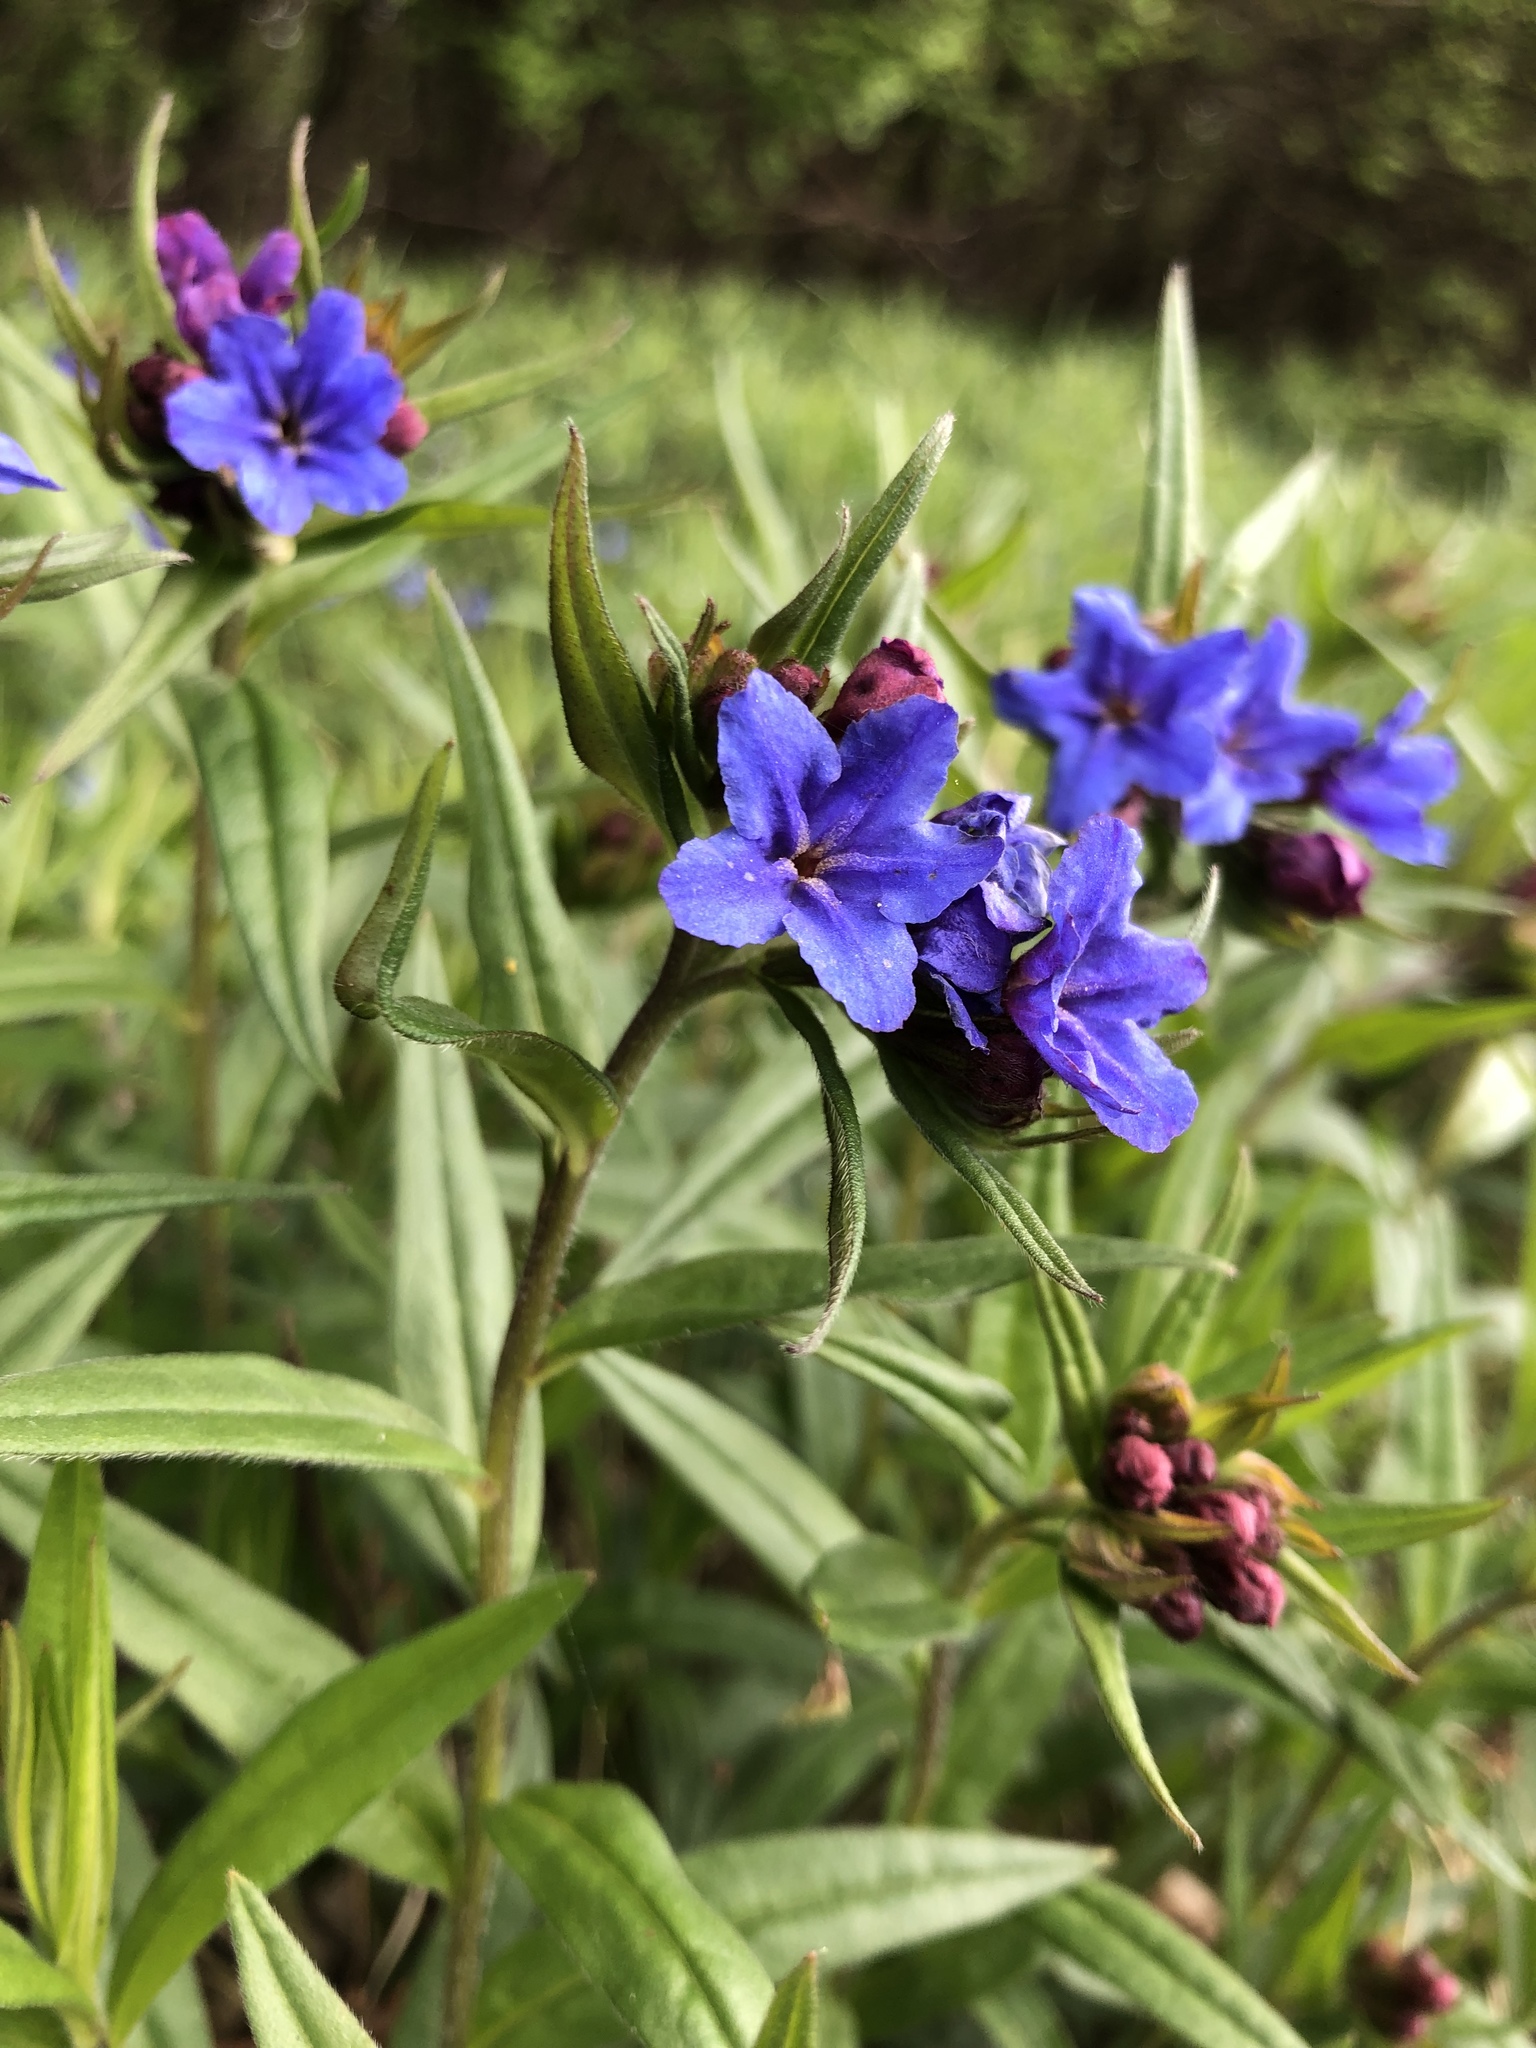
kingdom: Plantae
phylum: Tracheophyta
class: Magnoliopsida
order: Boraginales
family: Boraginaceae
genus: Aegonychon
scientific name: Aegonychon purpurocaeruleum
